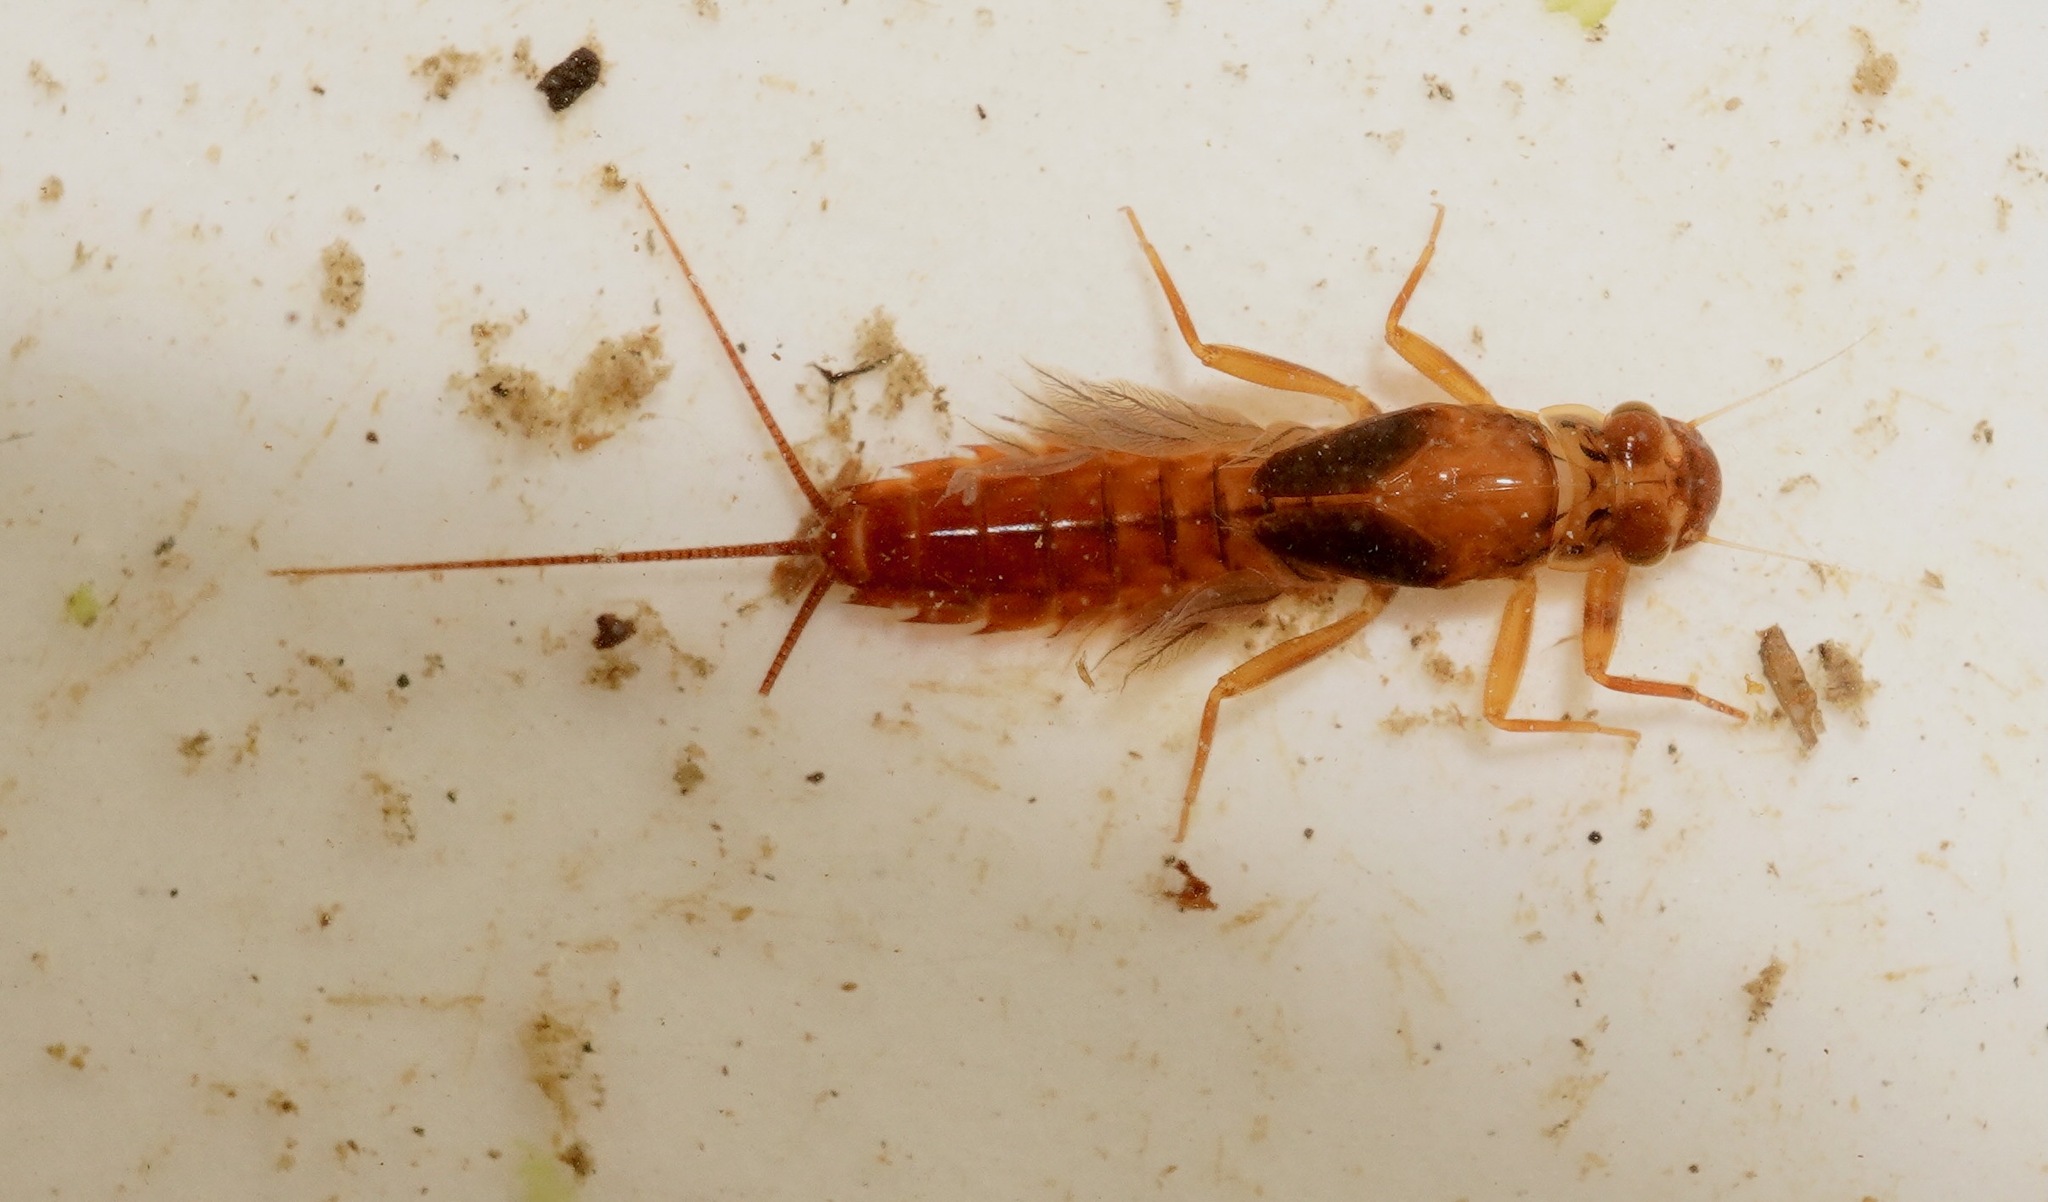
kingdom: Animalia
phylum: Arthropoda
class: Insecta
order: Ephemeroptera
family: Leptophlebiidae
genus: Acanthophlebia
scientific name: Acanthophlebia cruentata
